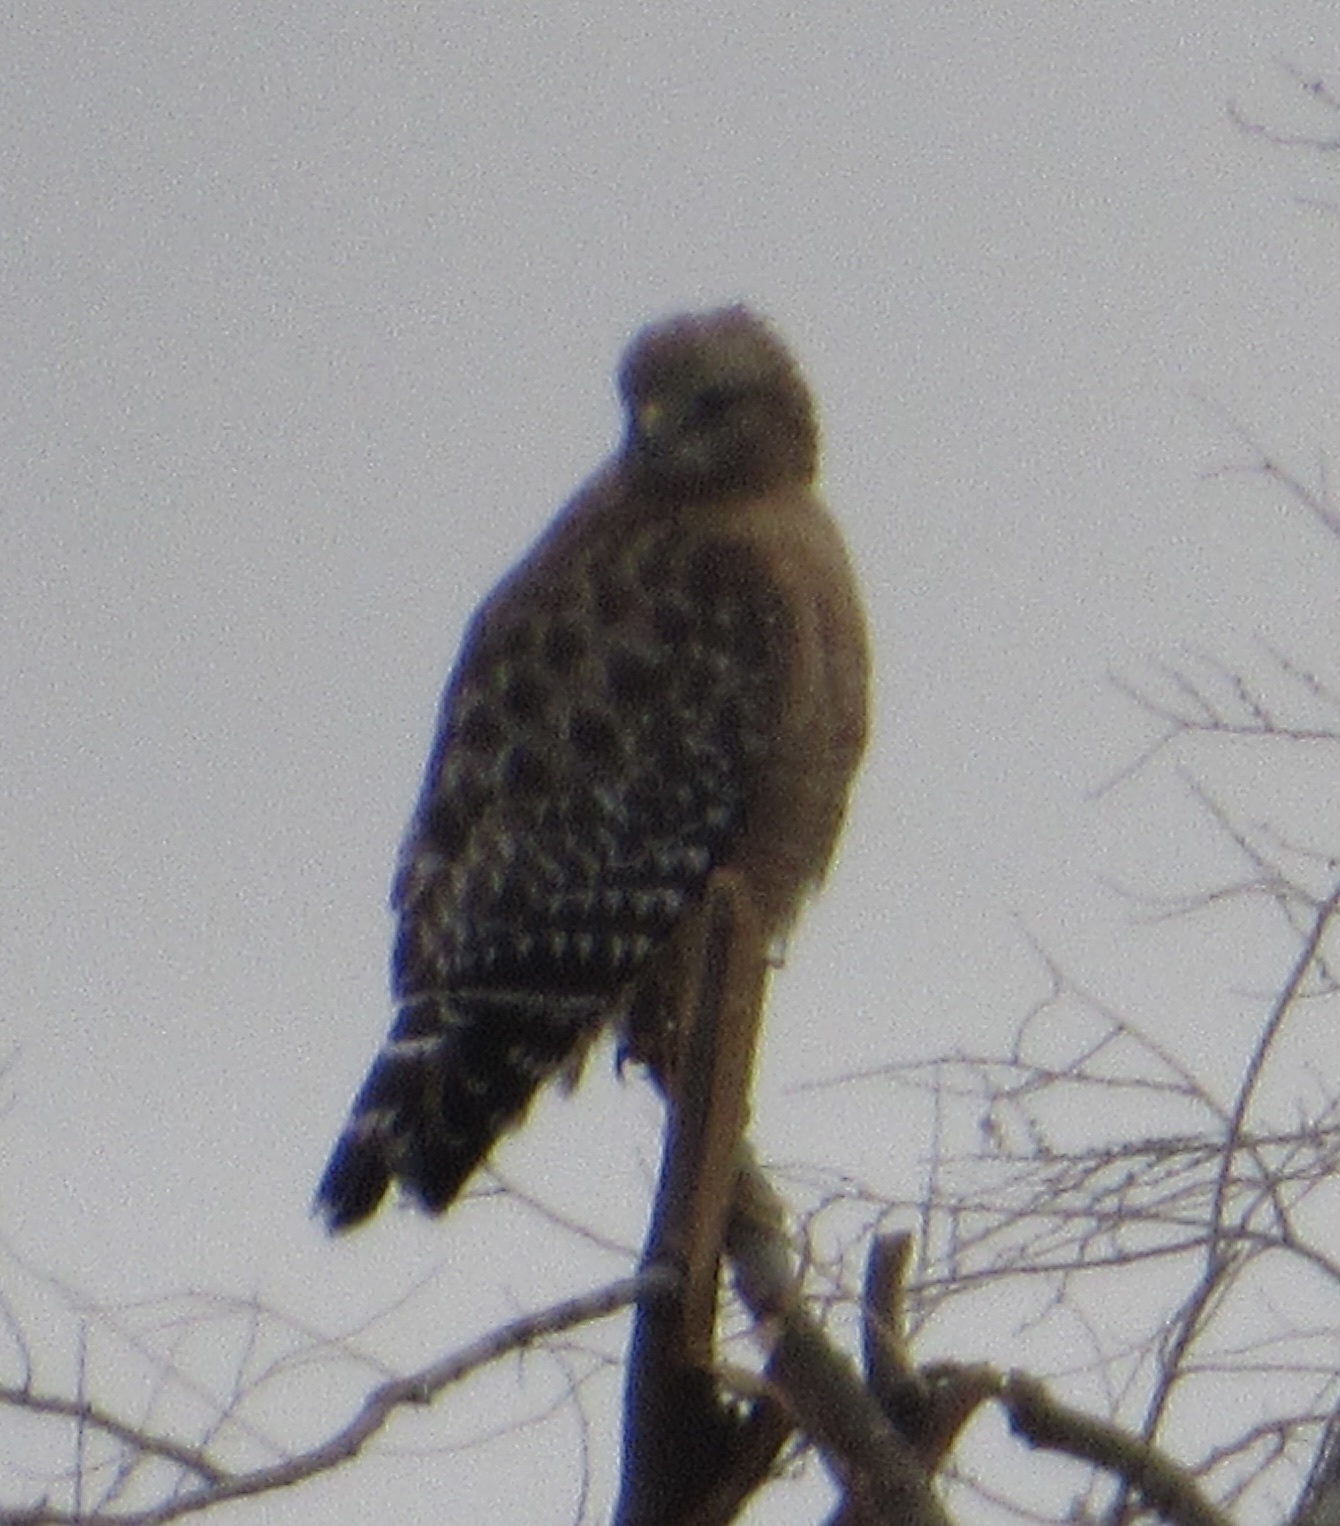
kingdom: Animalia
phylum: Chordata
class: Aves
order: Accipitriformes
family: Accipitridae
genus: Buteo
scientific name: Buteo lineatus
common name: Red-shouldered hawk
